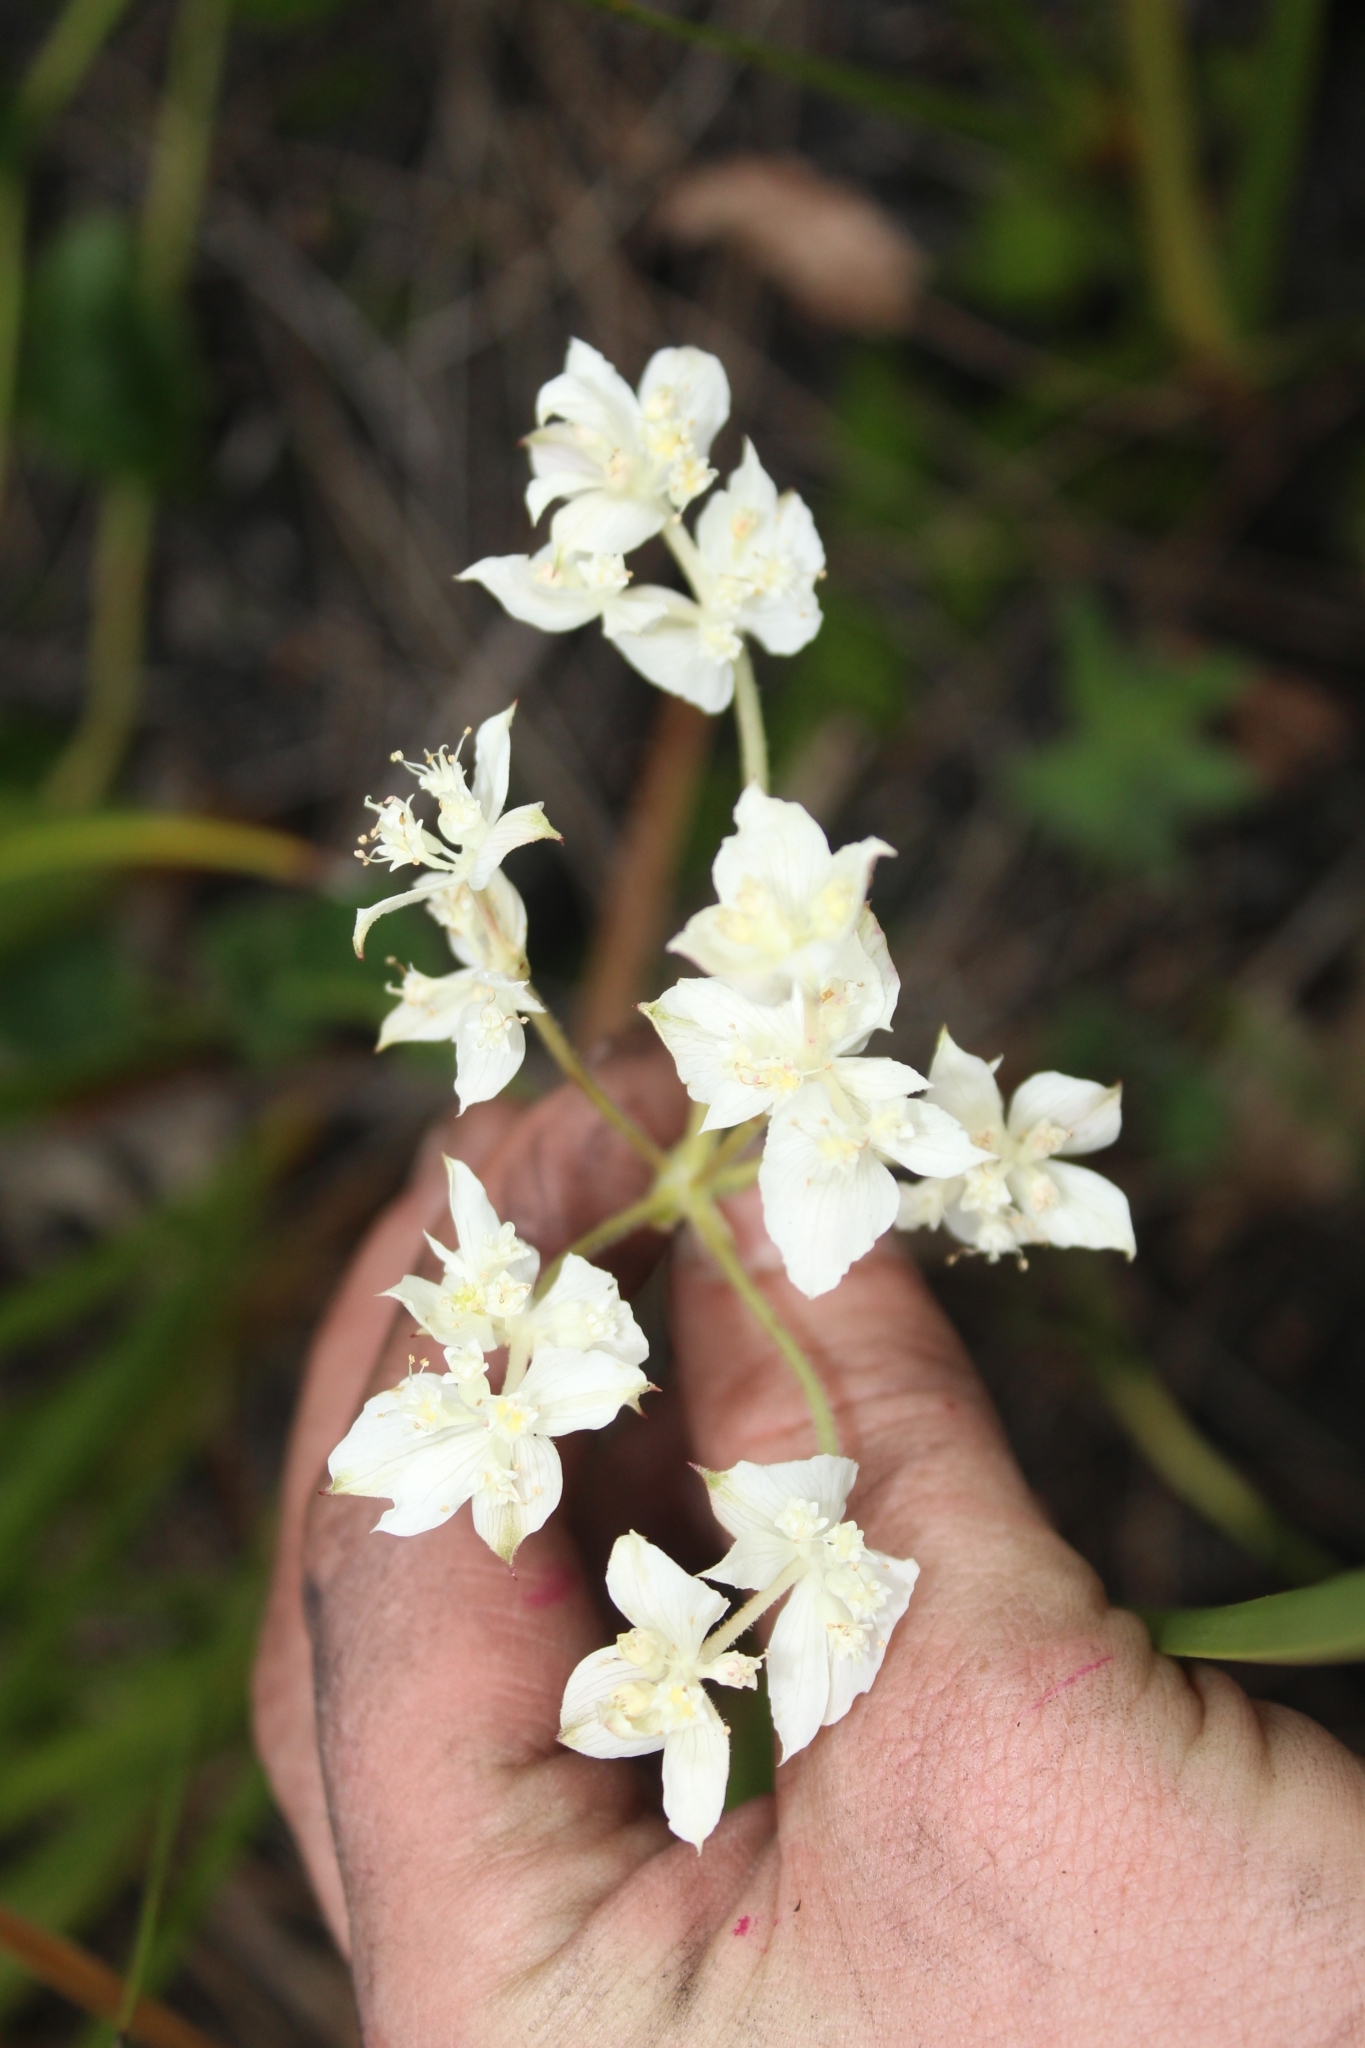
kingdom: Plantae
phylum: Tracheophyta
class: Magnoliopsida
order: Apiales
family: Apiaceae
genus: Xanthosia
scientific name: Xanthosia rotundifolia
